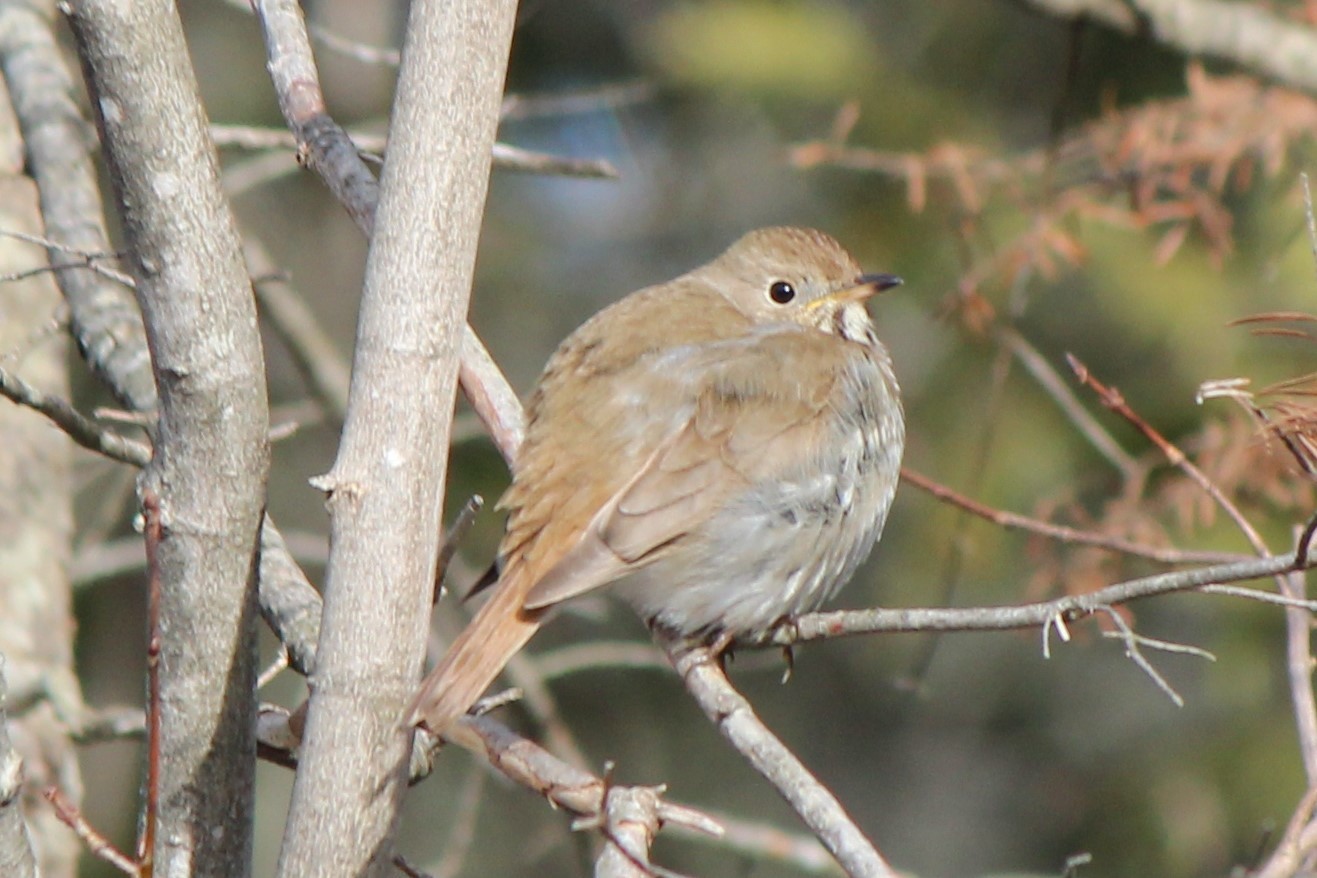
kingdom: Animalia
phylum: Chordata
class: Aves
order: Passeriformes
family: Turdidae
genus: Catharus
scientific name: Catharus guttatus
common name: Hermit thrush
